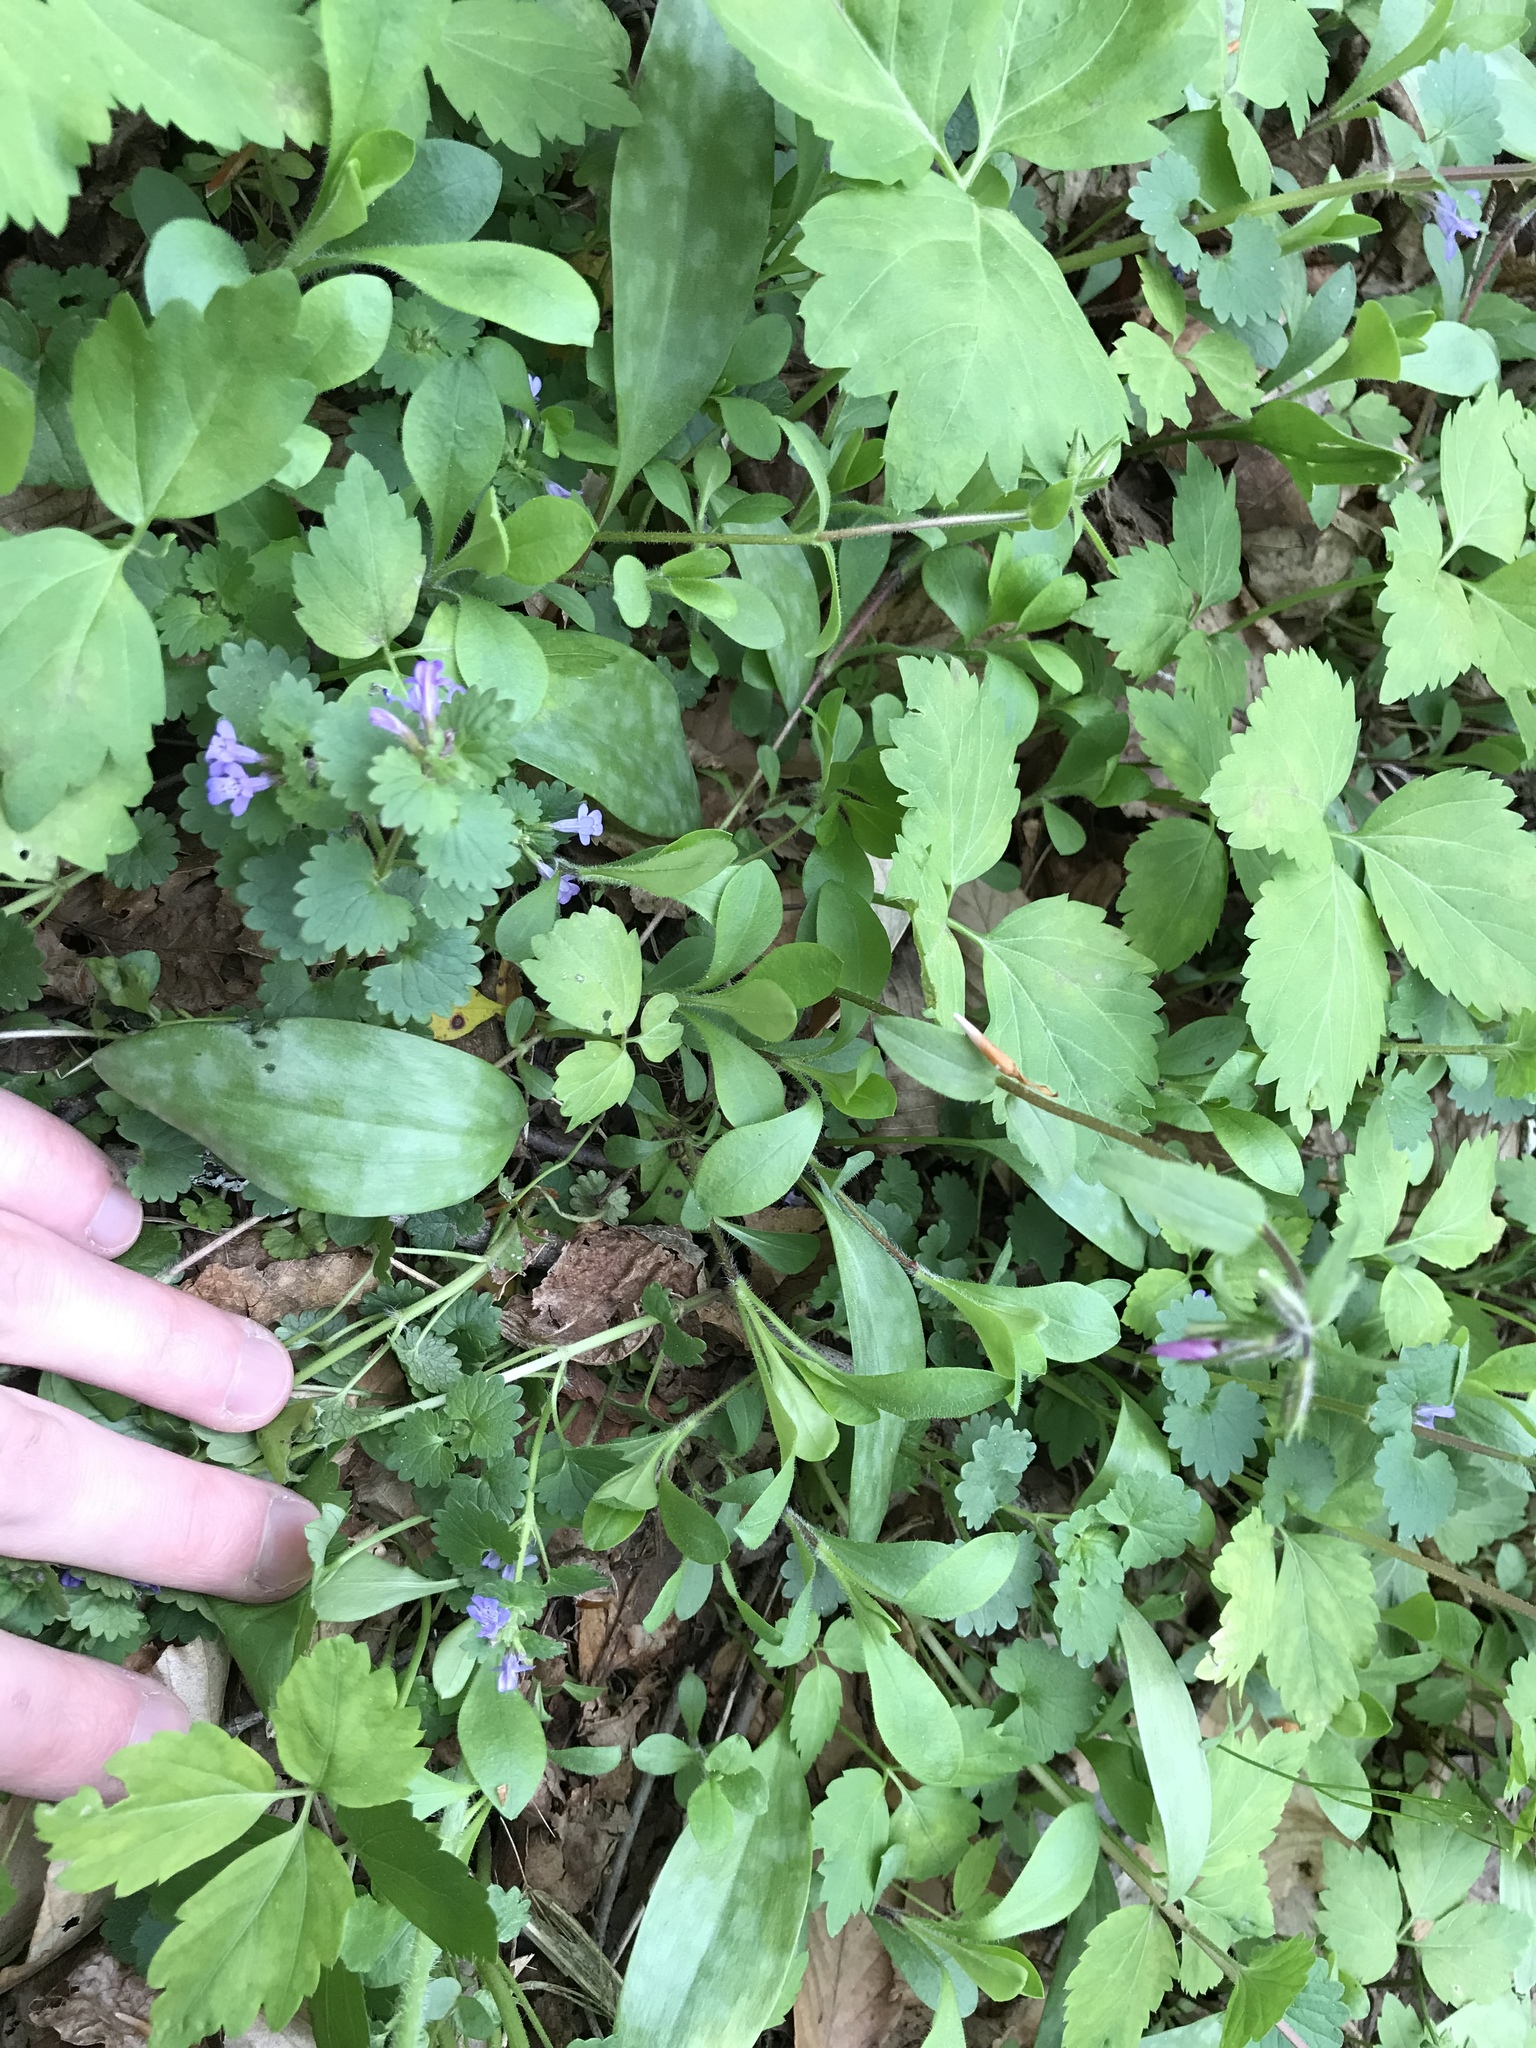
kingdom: Plantae
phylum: Tracheophyta
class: Magnoliopsida
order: Ericales
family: Polemoniaceae
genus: Phlox
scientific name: Phlox stolonifera
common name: Creeping phlox
